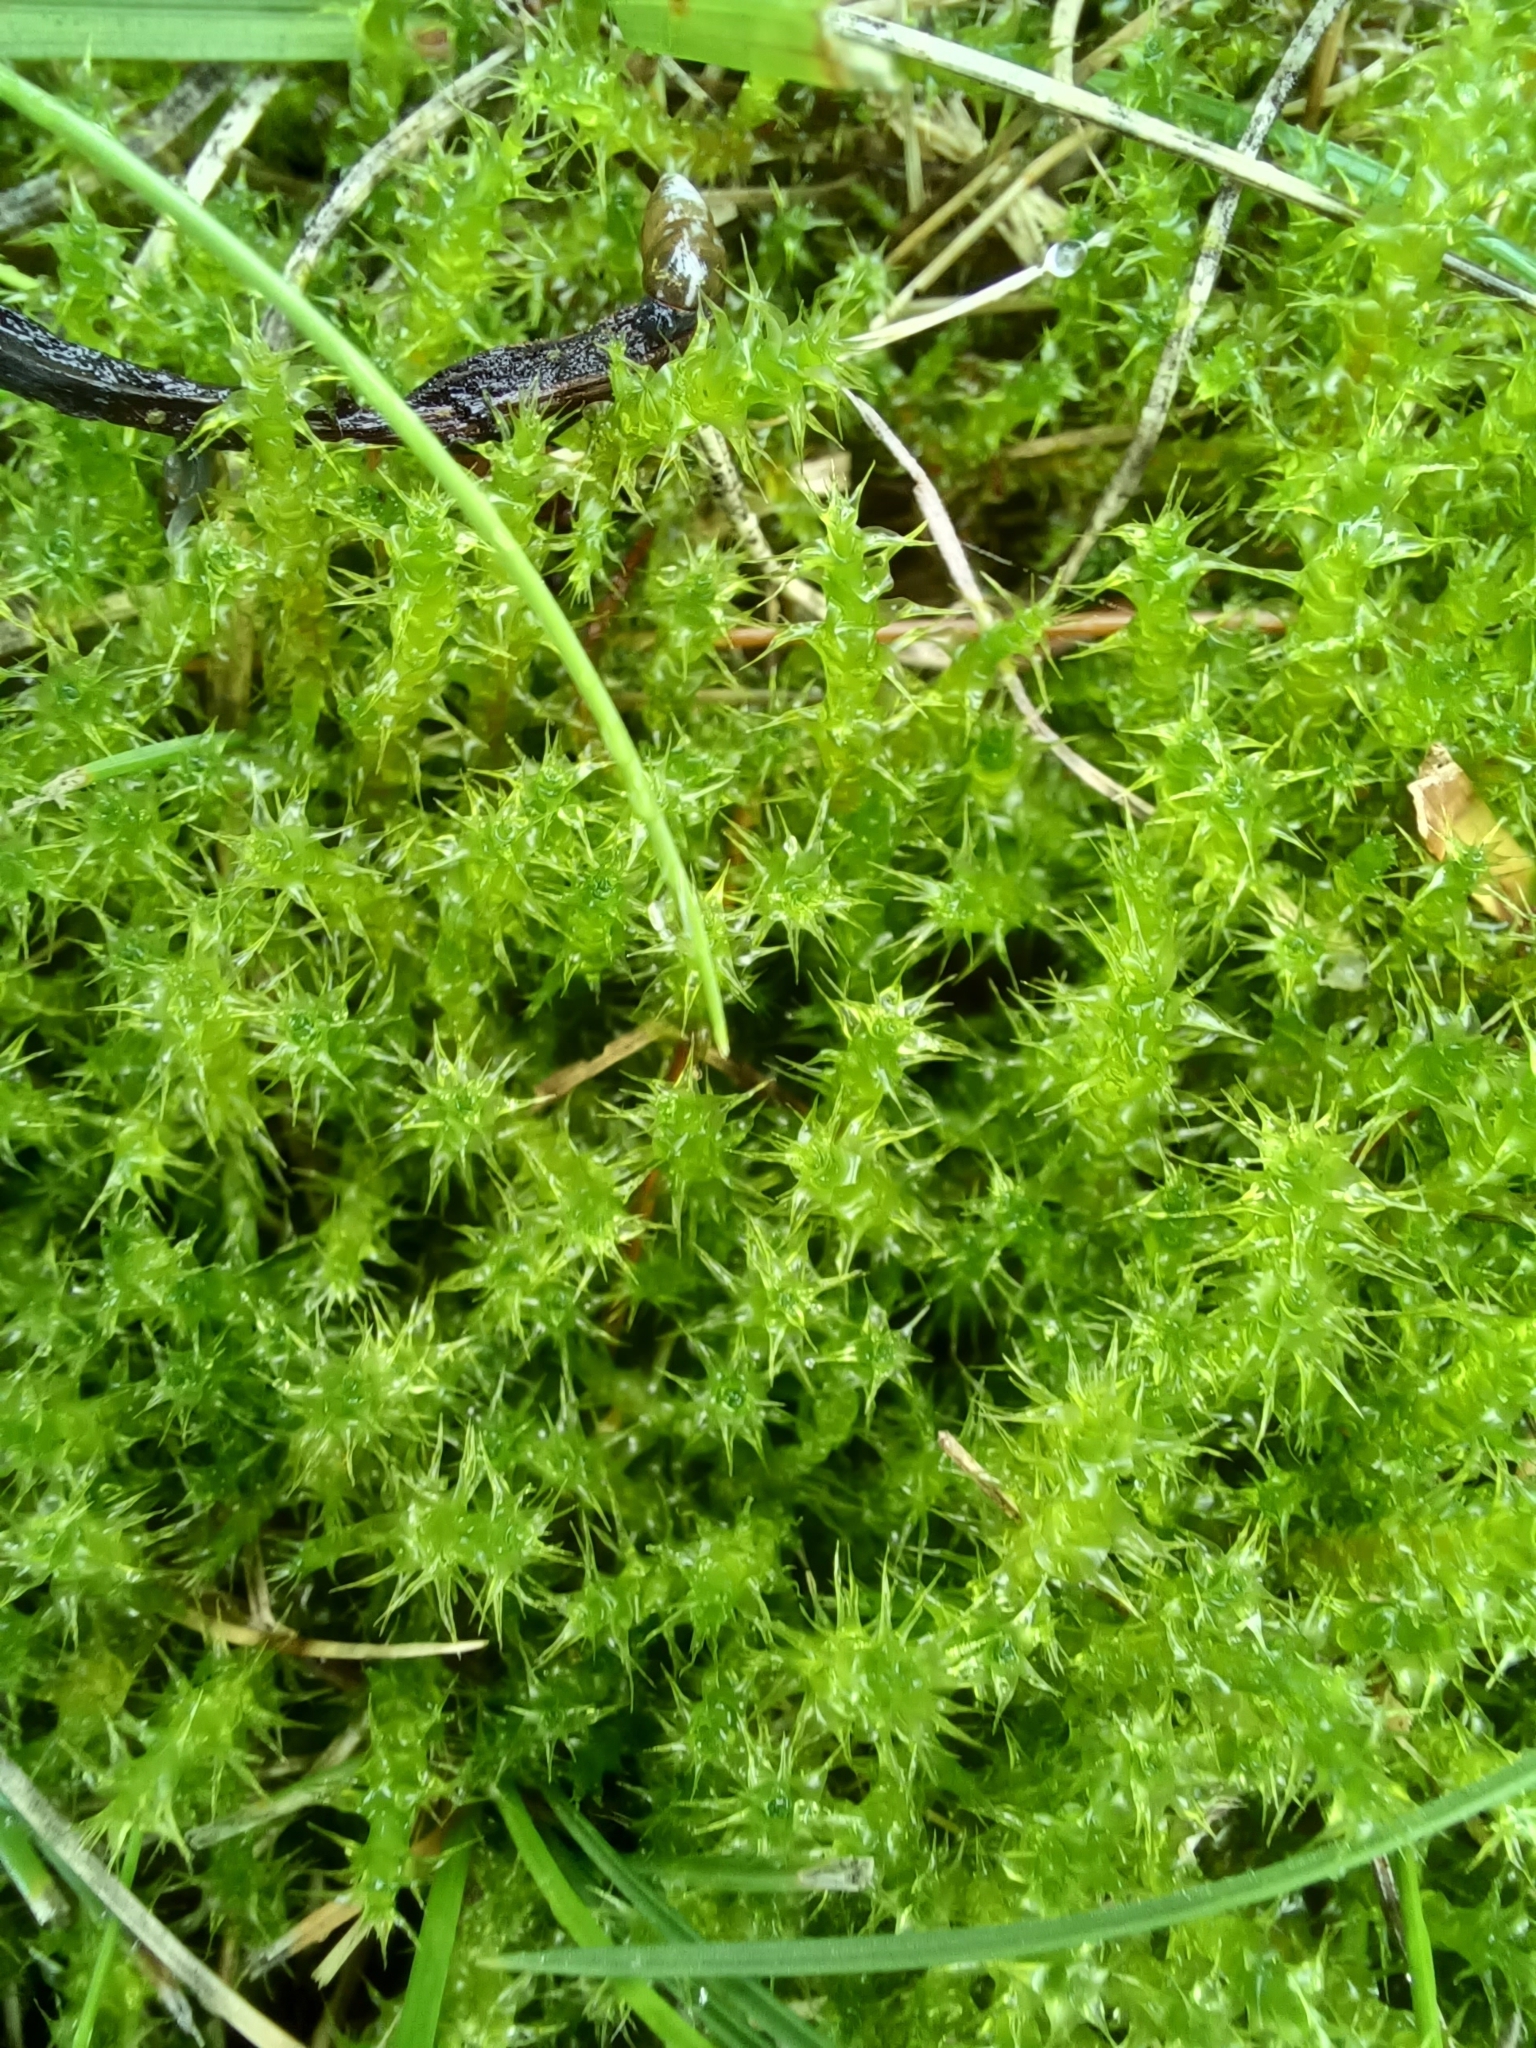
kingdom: Plantae
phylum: Bryophyta
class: Bryopsida
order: Hypnales
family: Hylocomiaceae
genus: Rhytidiadelphus
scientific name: Rhytidiadelphus squarrosus
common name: Springy turf-moss
